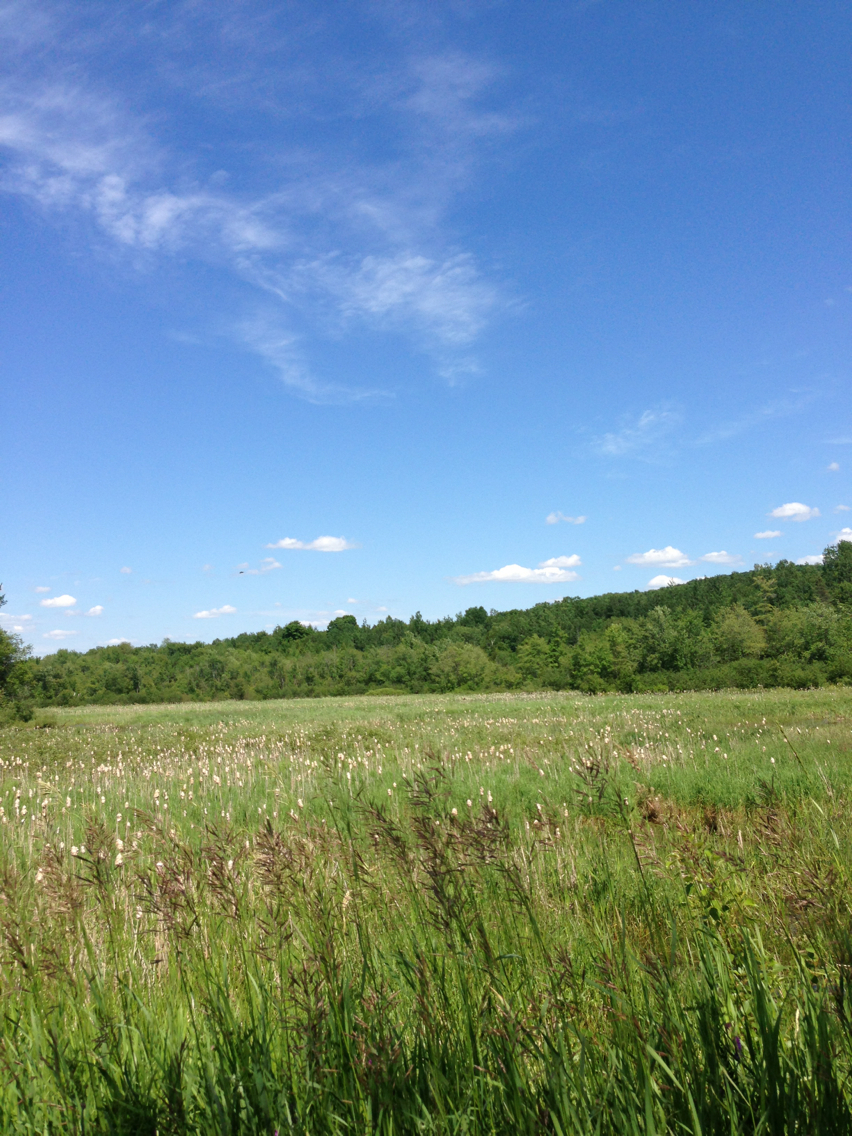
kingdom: Plantae
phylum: Tracheophyta
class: Liliopsida
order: Poales
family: Poaceae
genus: Bromus
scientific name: Bromus inermis
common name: Smooth brome
